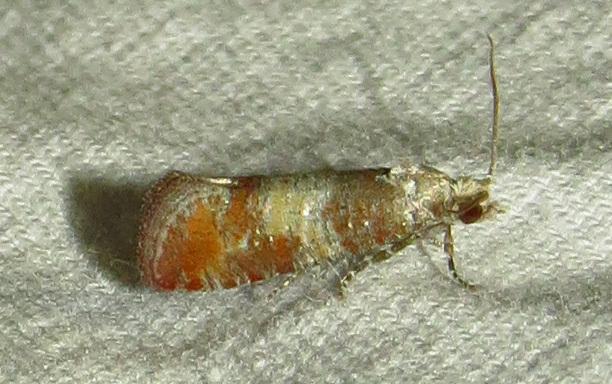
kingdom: Animalia
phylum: Arthropoda
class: Insecta
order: Lepidoptera
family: Tortricidae
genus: Rhyacionia
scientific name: Rhyacionia rigidana
